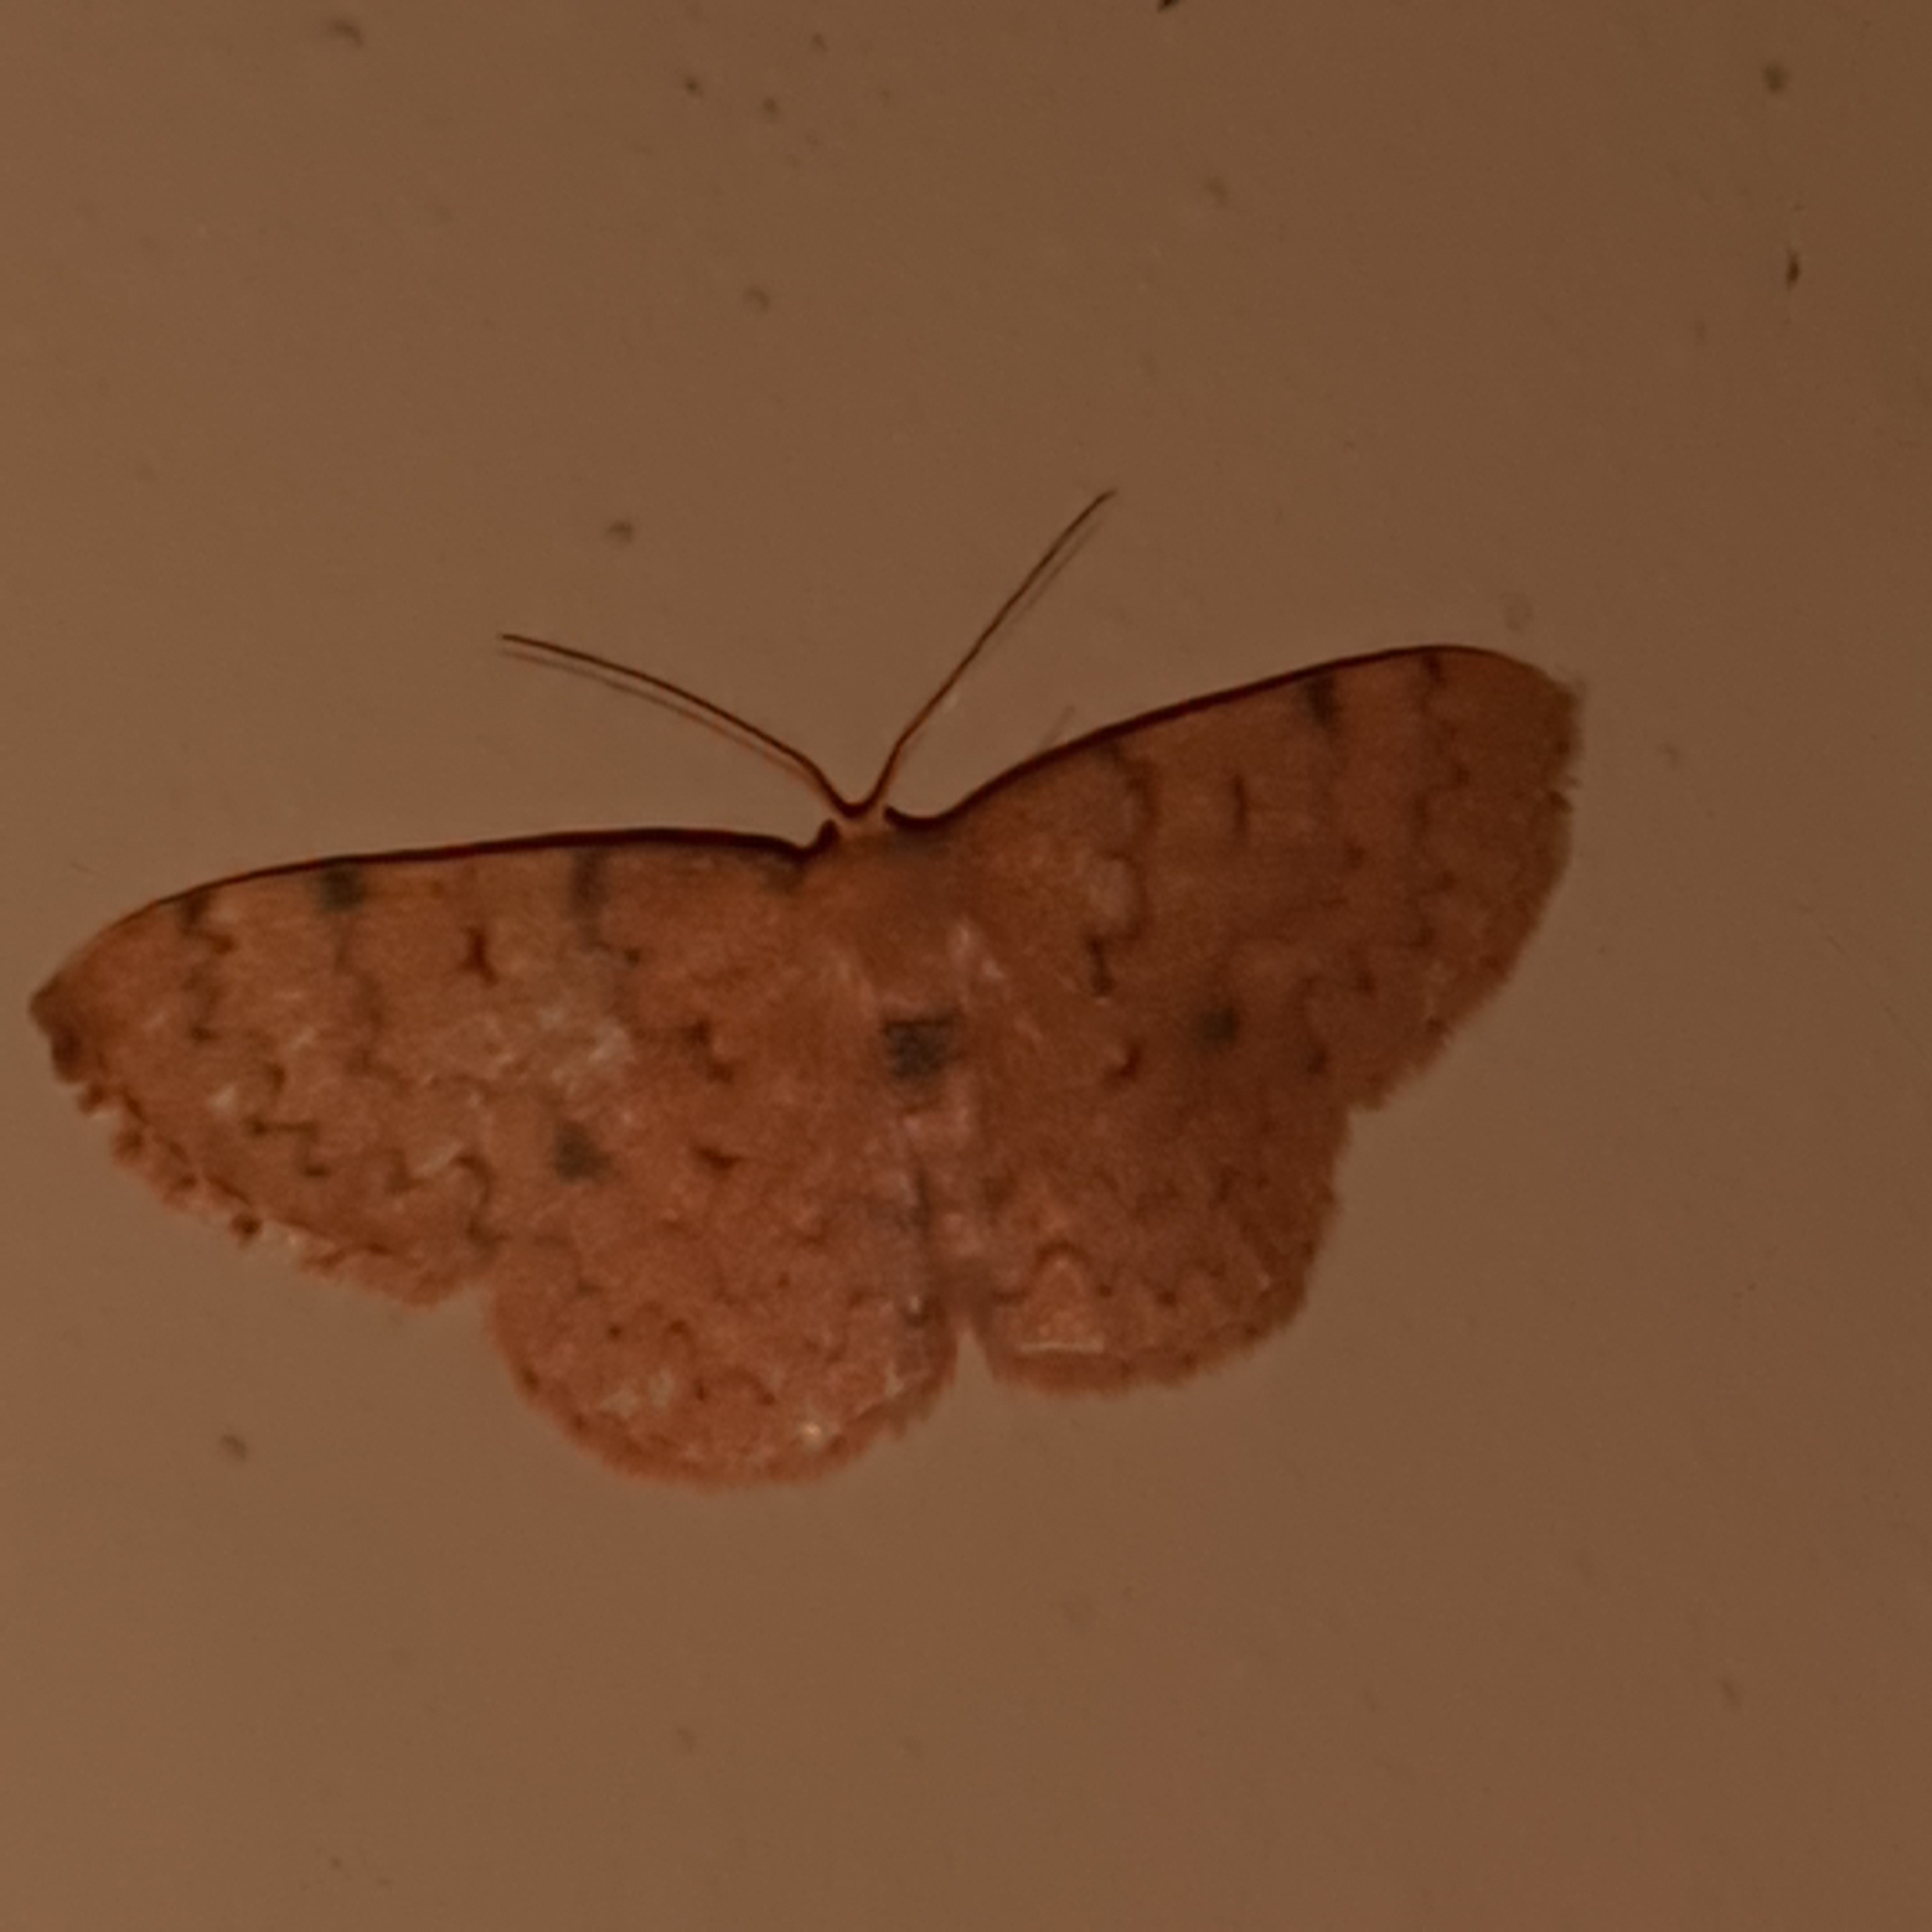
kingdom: Animalia
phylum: Arthropoda
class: Insecta
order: Lepidoptera
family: Geometridae
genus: Semaeopus
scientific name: Semaeopus trophinus
